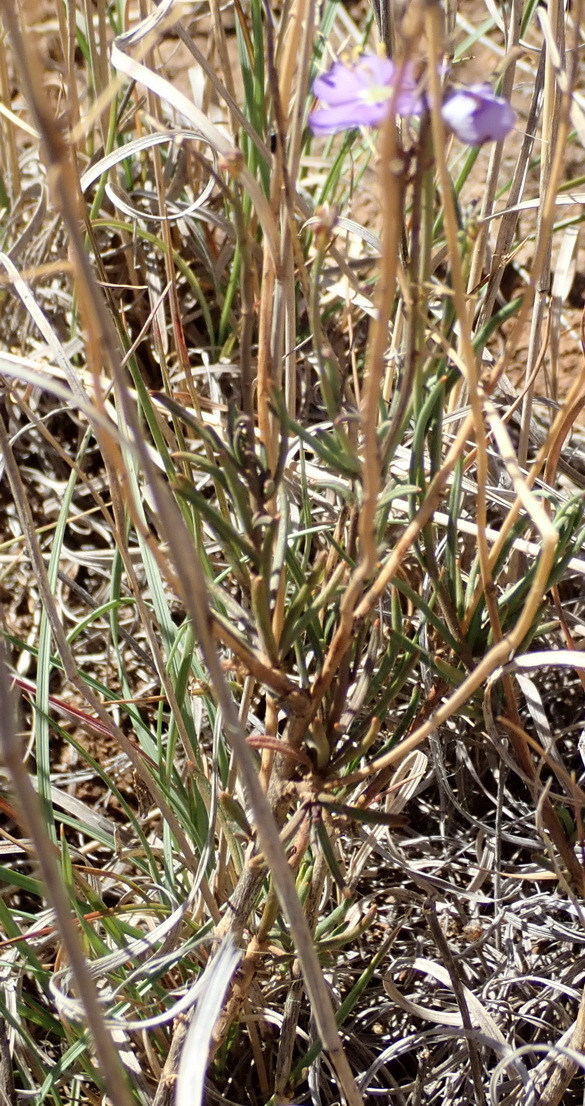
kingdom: Plantae
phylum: Tracheophyta
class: Magnoliopsida
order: Brassicales
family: Brassicaceae
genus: Heliophila
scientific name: Heliophila suavissima
